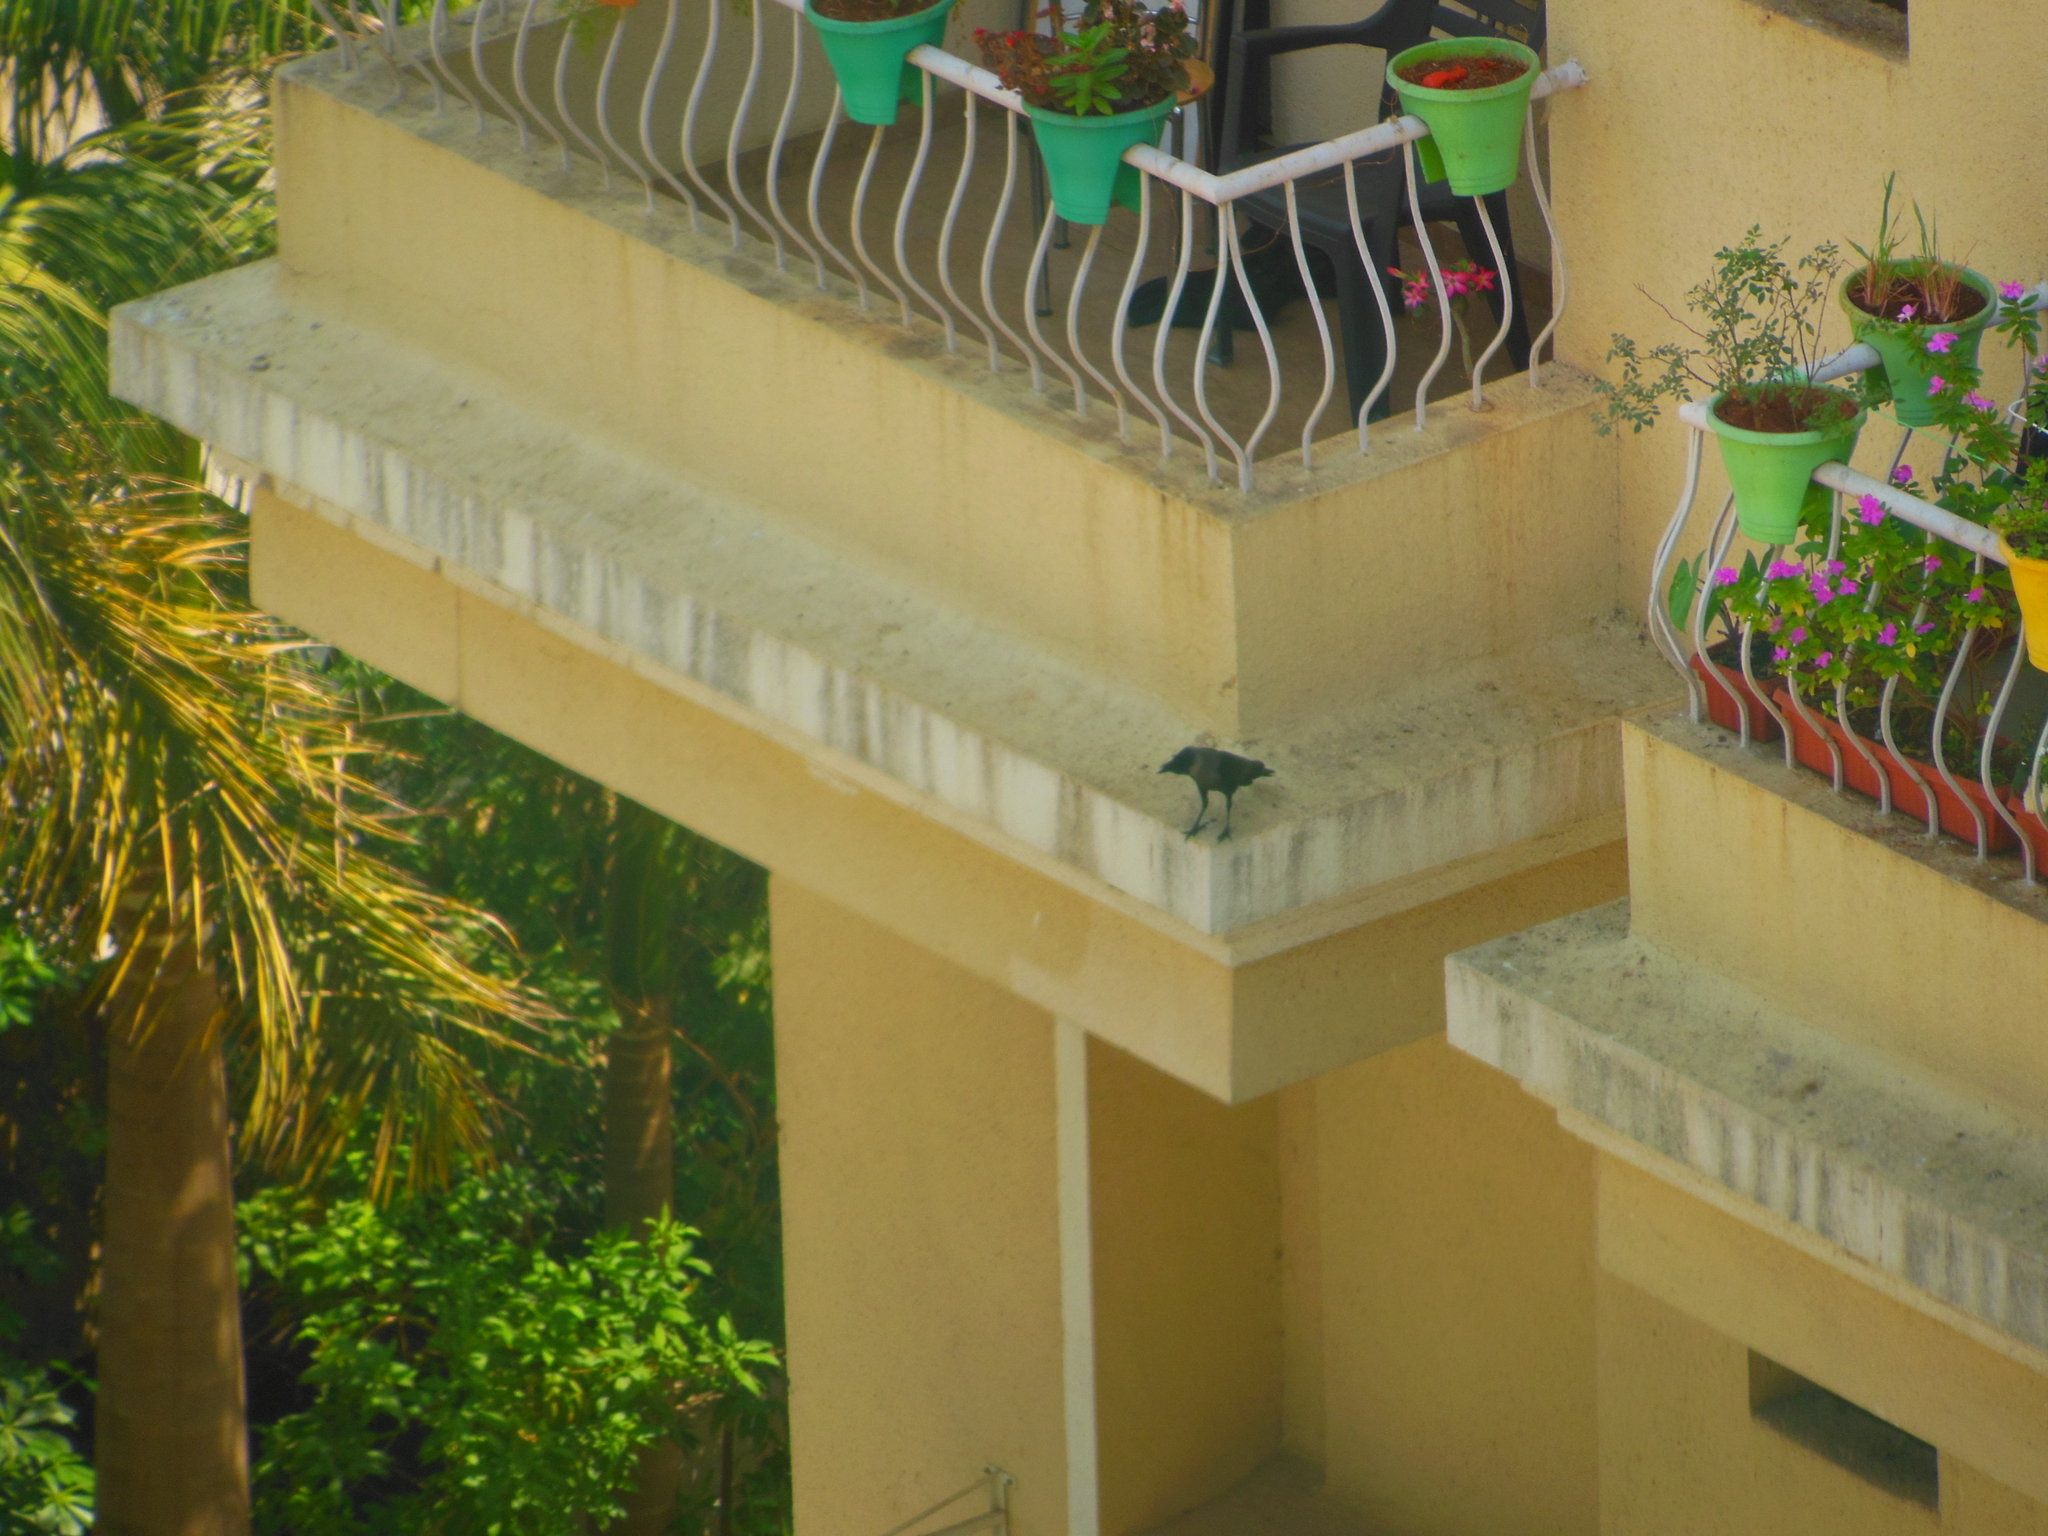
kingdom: Animalia
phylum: Chordata
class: Aves
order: Passeriformes
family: Corvidae
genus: Corvus
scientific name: Corvus splendens
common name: House crow
